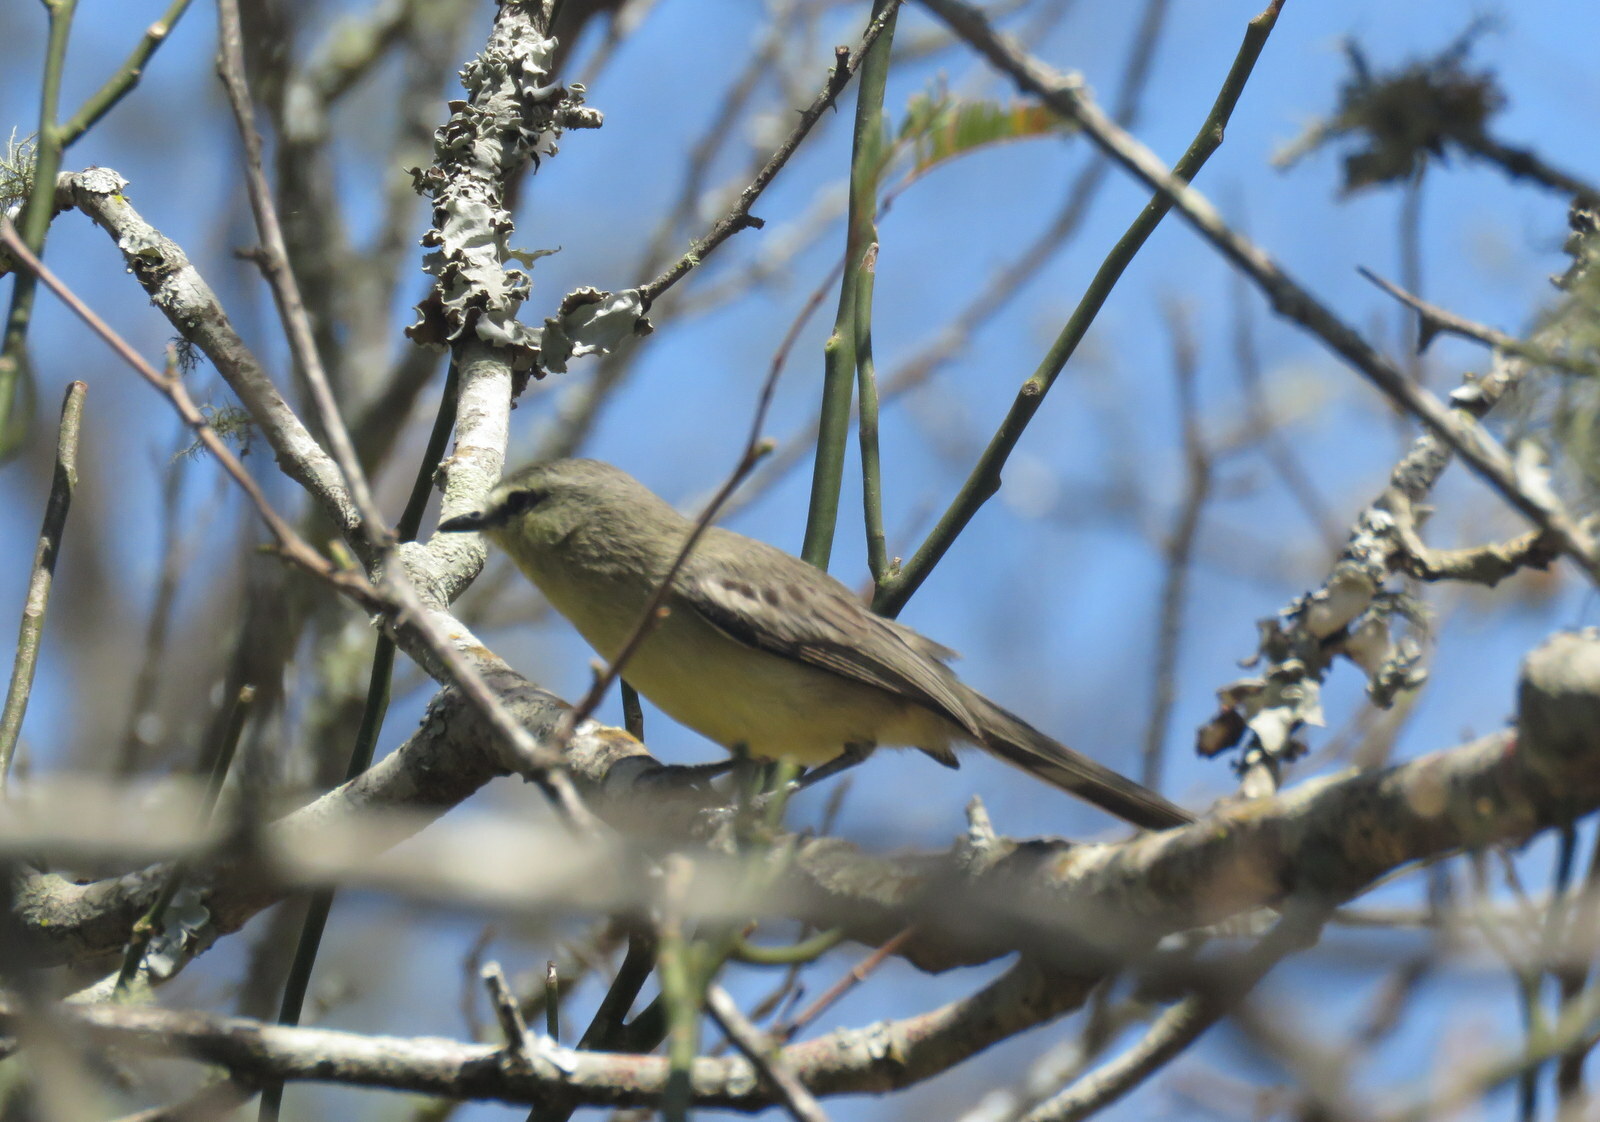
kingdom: Animalia
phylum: Chordata
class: Aves
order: Passeriformes
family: Tyrannidae
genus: Stigmatura
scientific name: Stigmatura budytoides
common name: Greater wagtail-tyrant
